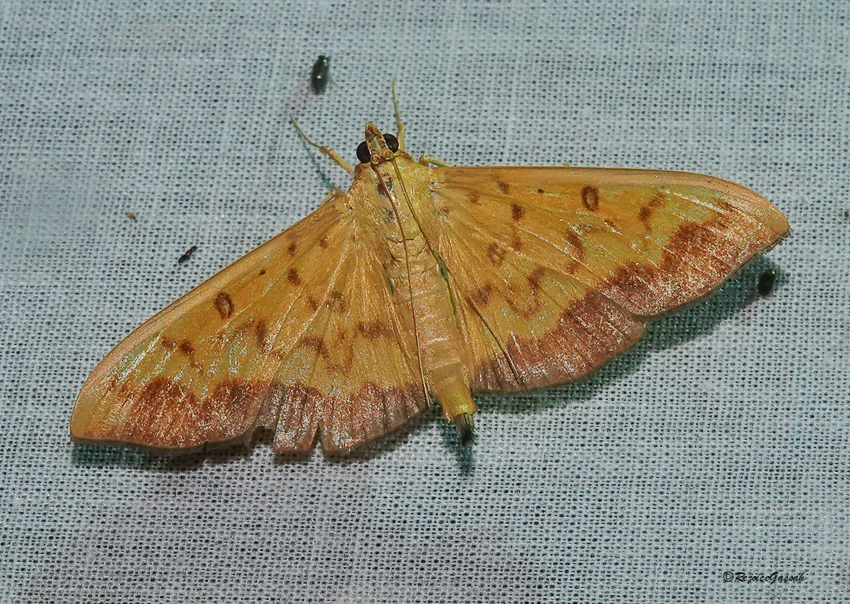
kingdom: Animalia
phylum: Arthropoda
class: Insecta
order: Lepidoptera
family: Crambidae
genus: Botyodes
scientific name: Botyodes asialis
